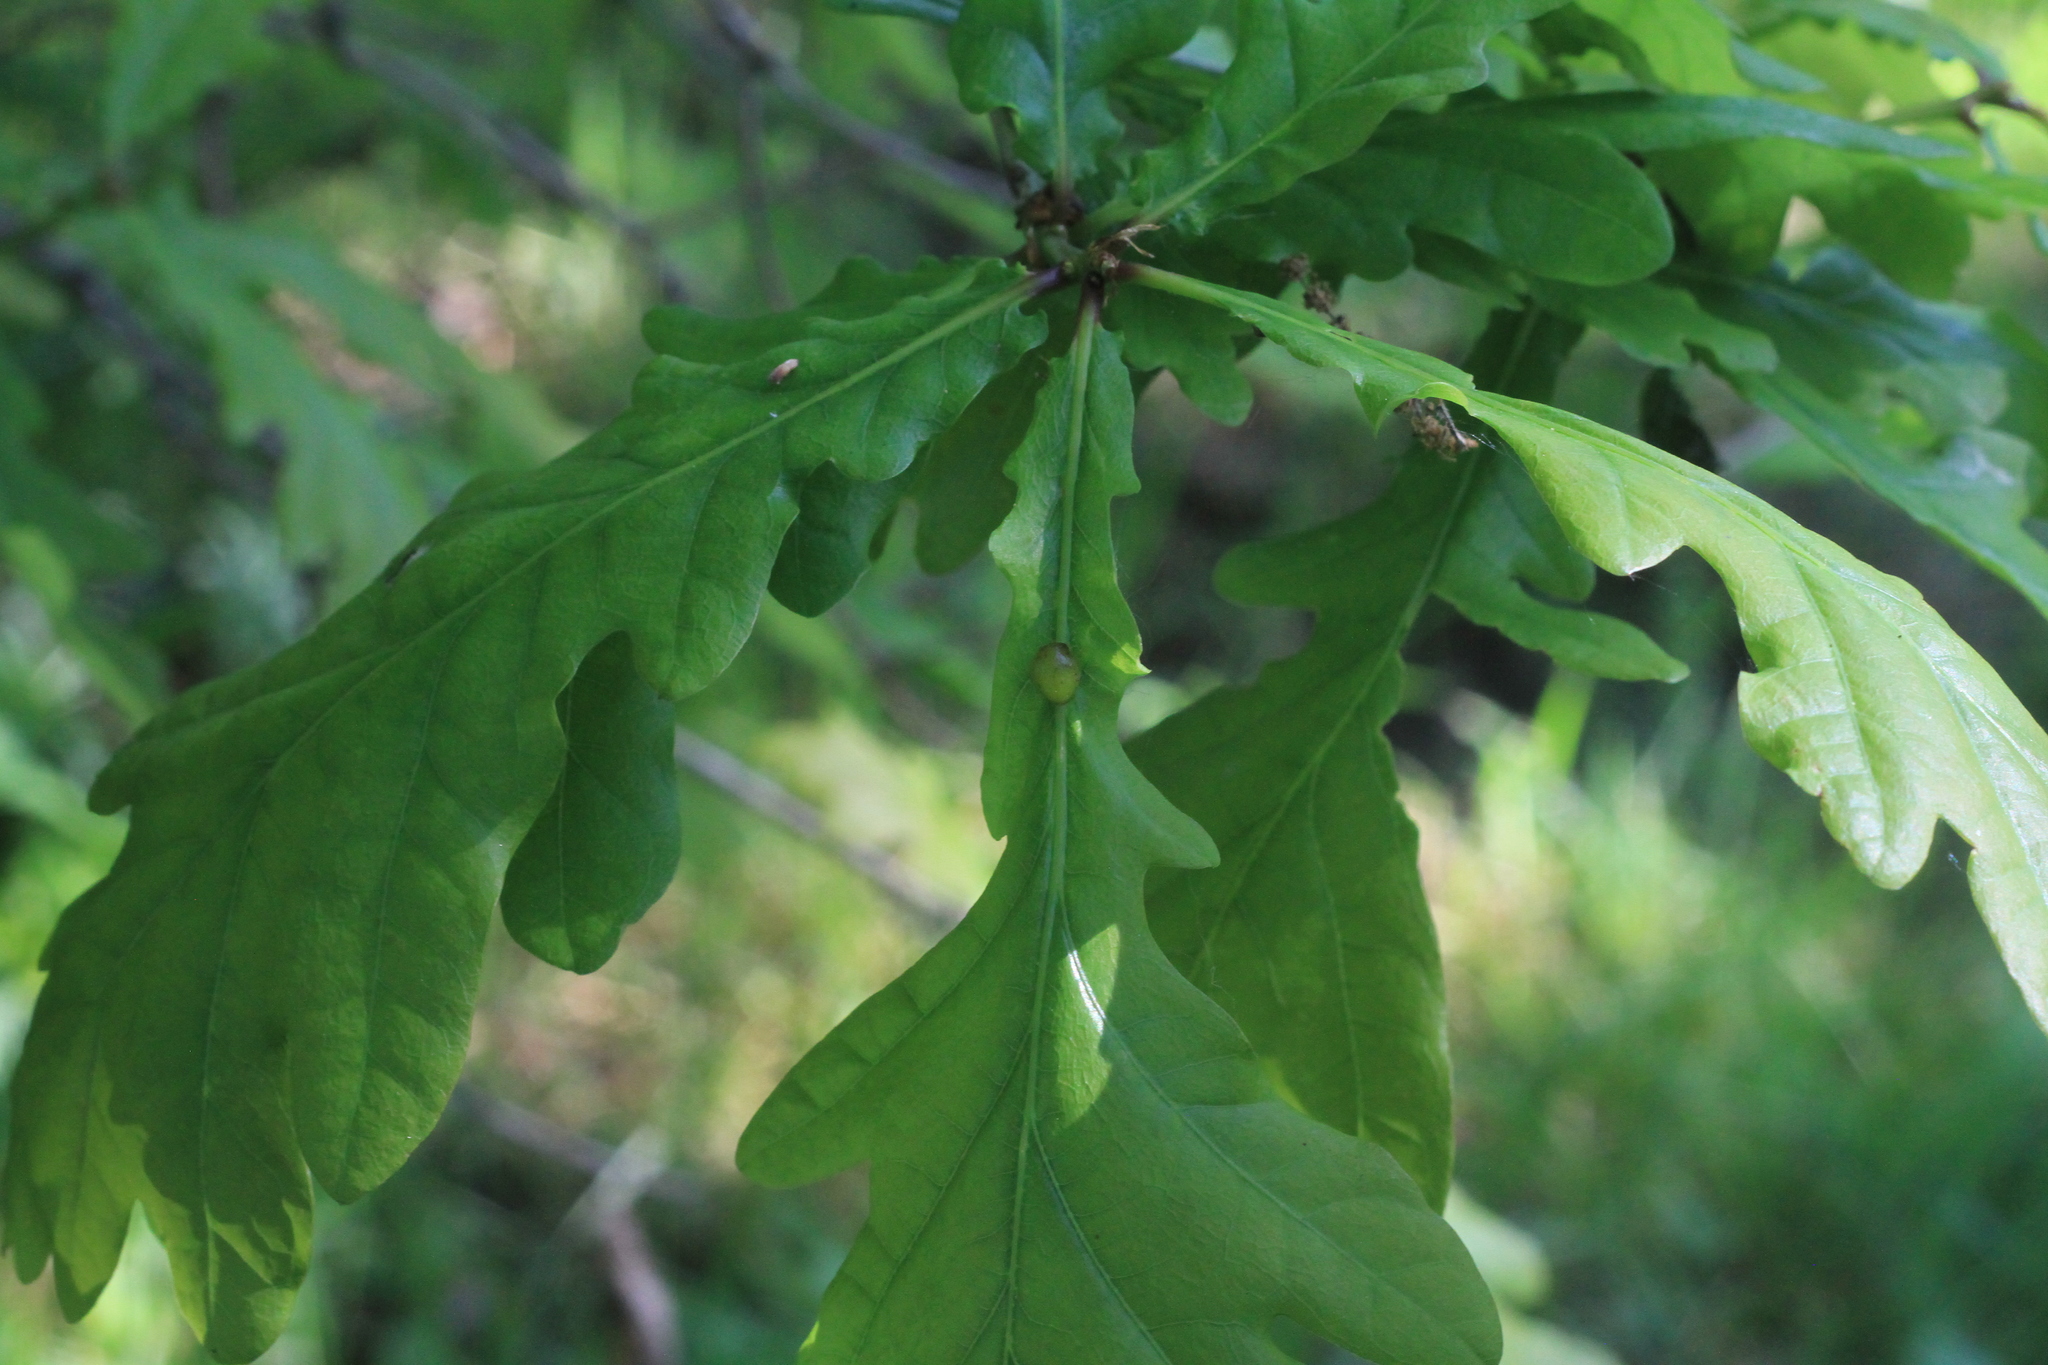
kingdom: Animalia
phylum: Arthropoda
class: Insecta
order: Hymenoptera
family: Cynipidae
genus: Neuroterus
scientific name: Neuroterus quercusbaccarum
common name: Common spangle gall
